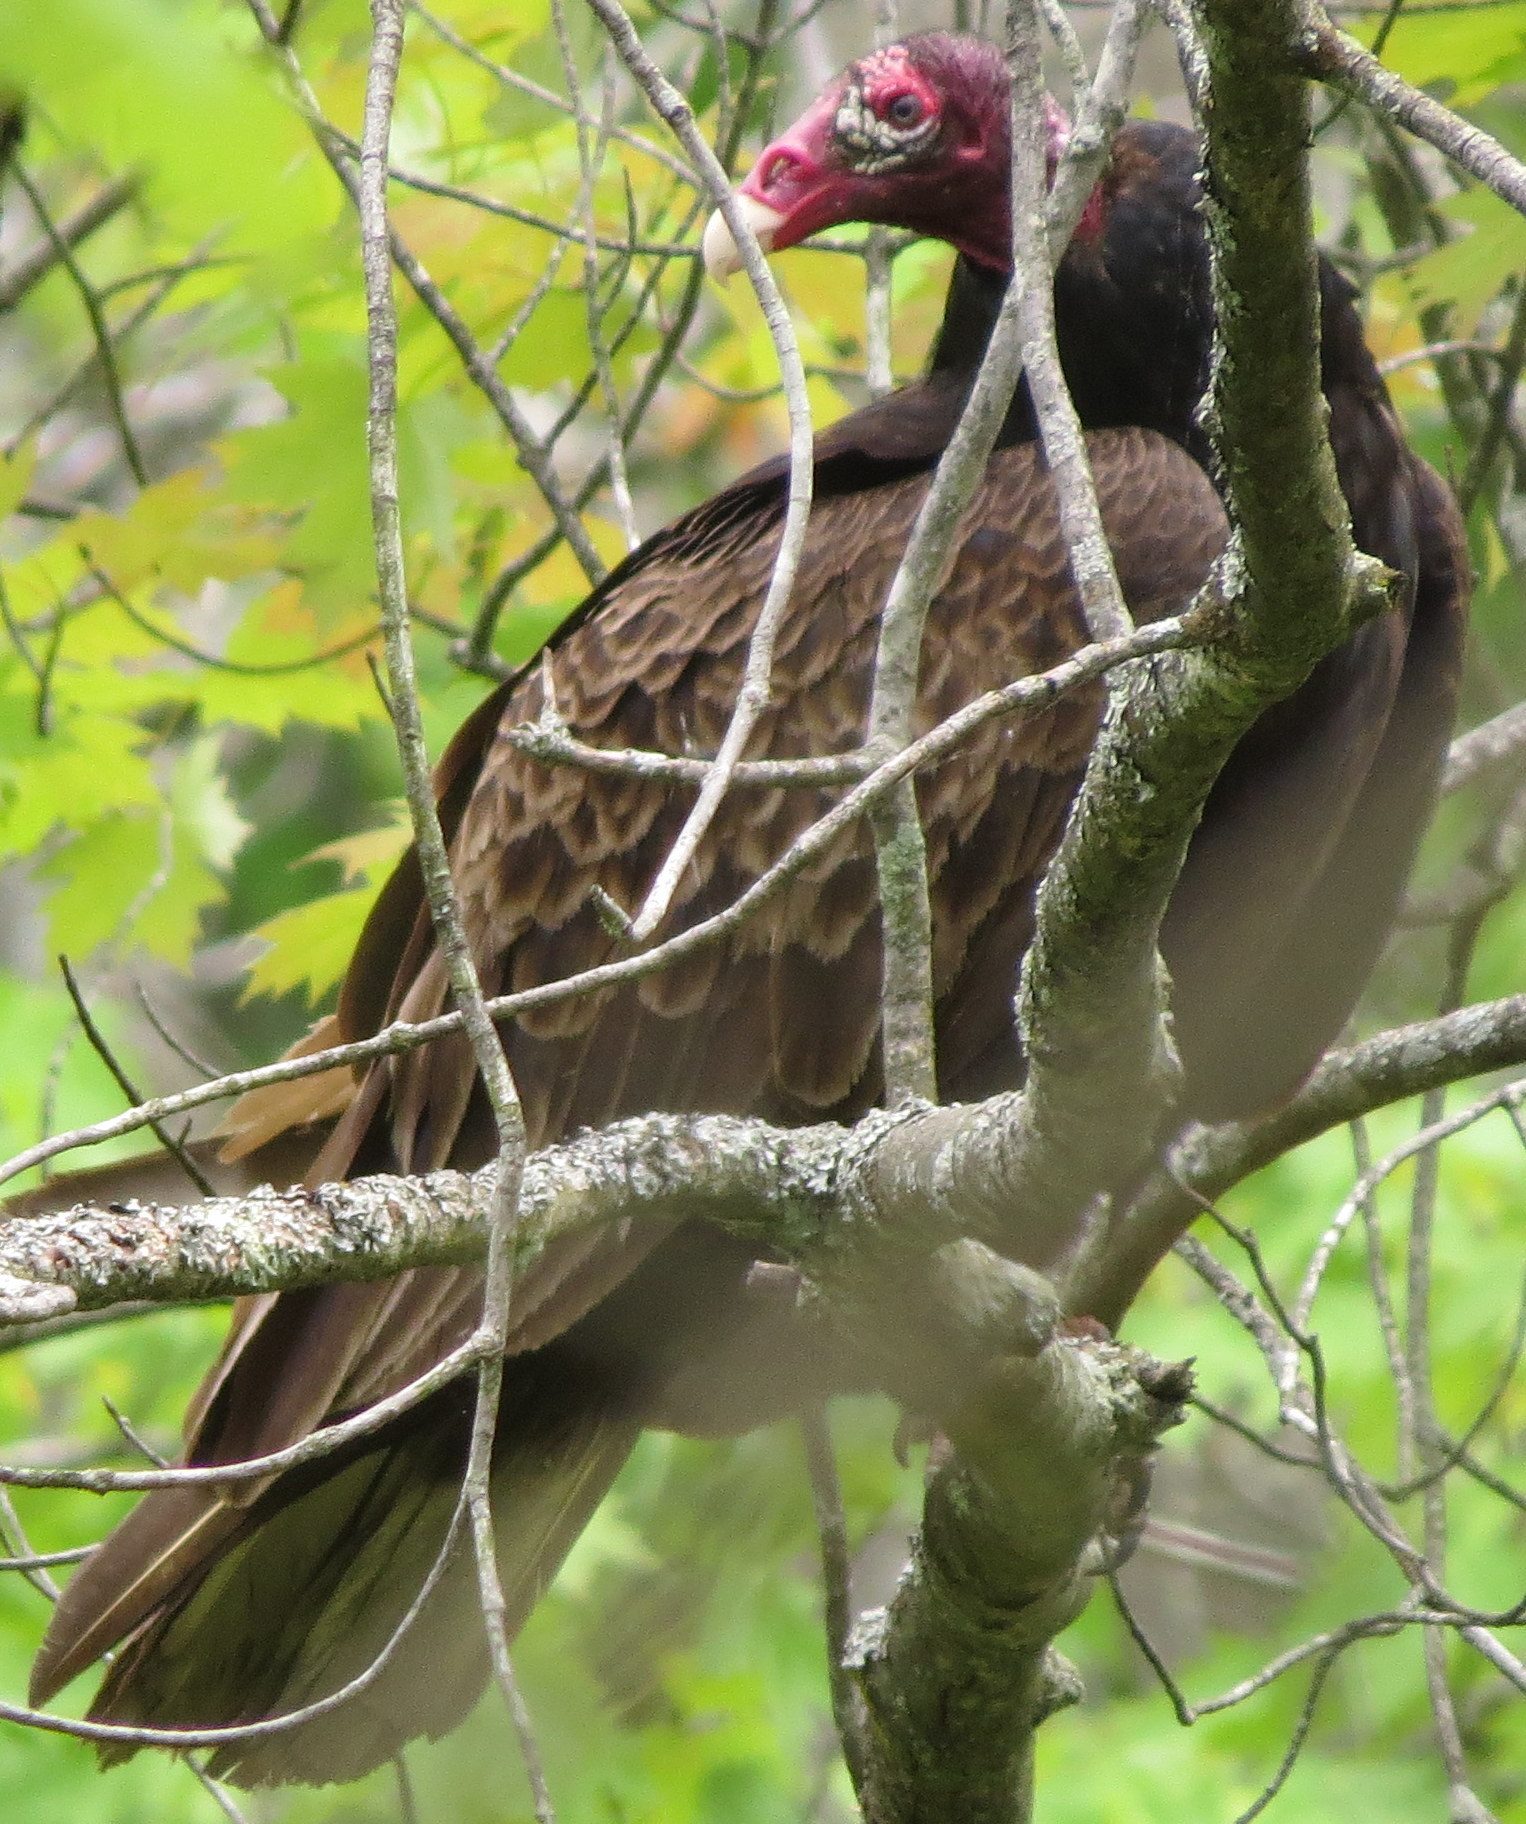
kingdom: Animalia
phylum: Chordata
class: Aves
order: Accipitriformes
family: Cathartidae
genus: Cathartes
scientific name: Cathartes aura
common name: Turkey vulture
